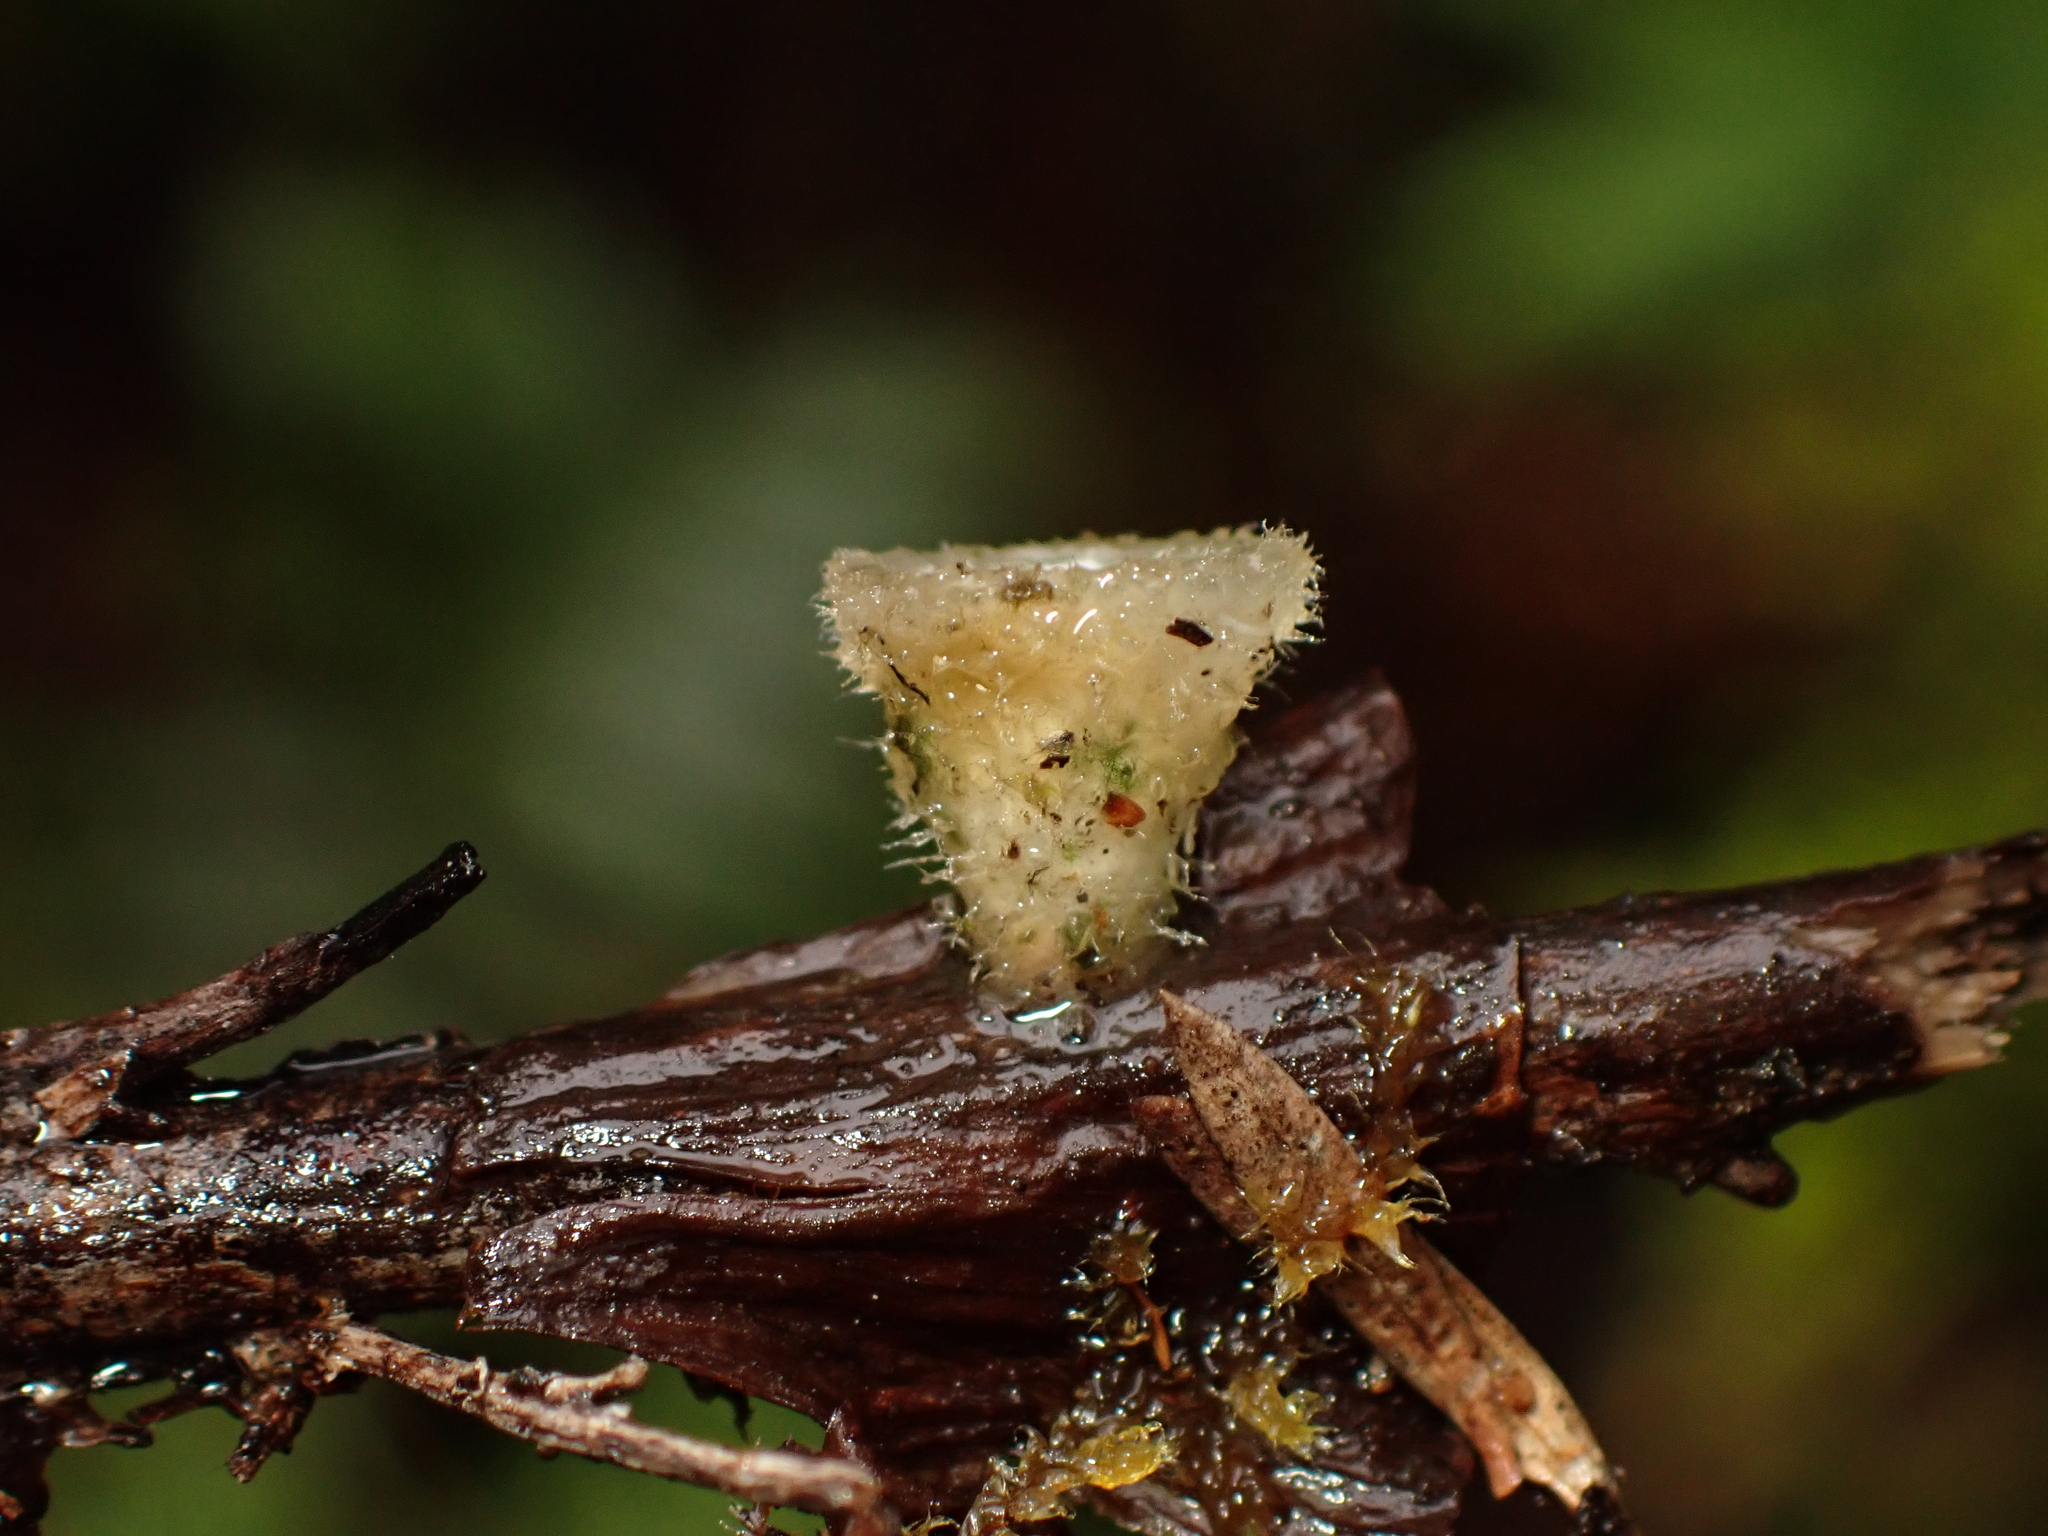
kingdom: Fungi
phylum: Basidiomycota
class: Agaricomycetes
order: Agaricales
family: Agaricaceae
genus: Nidula
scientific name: Nidula niveotomentosa
